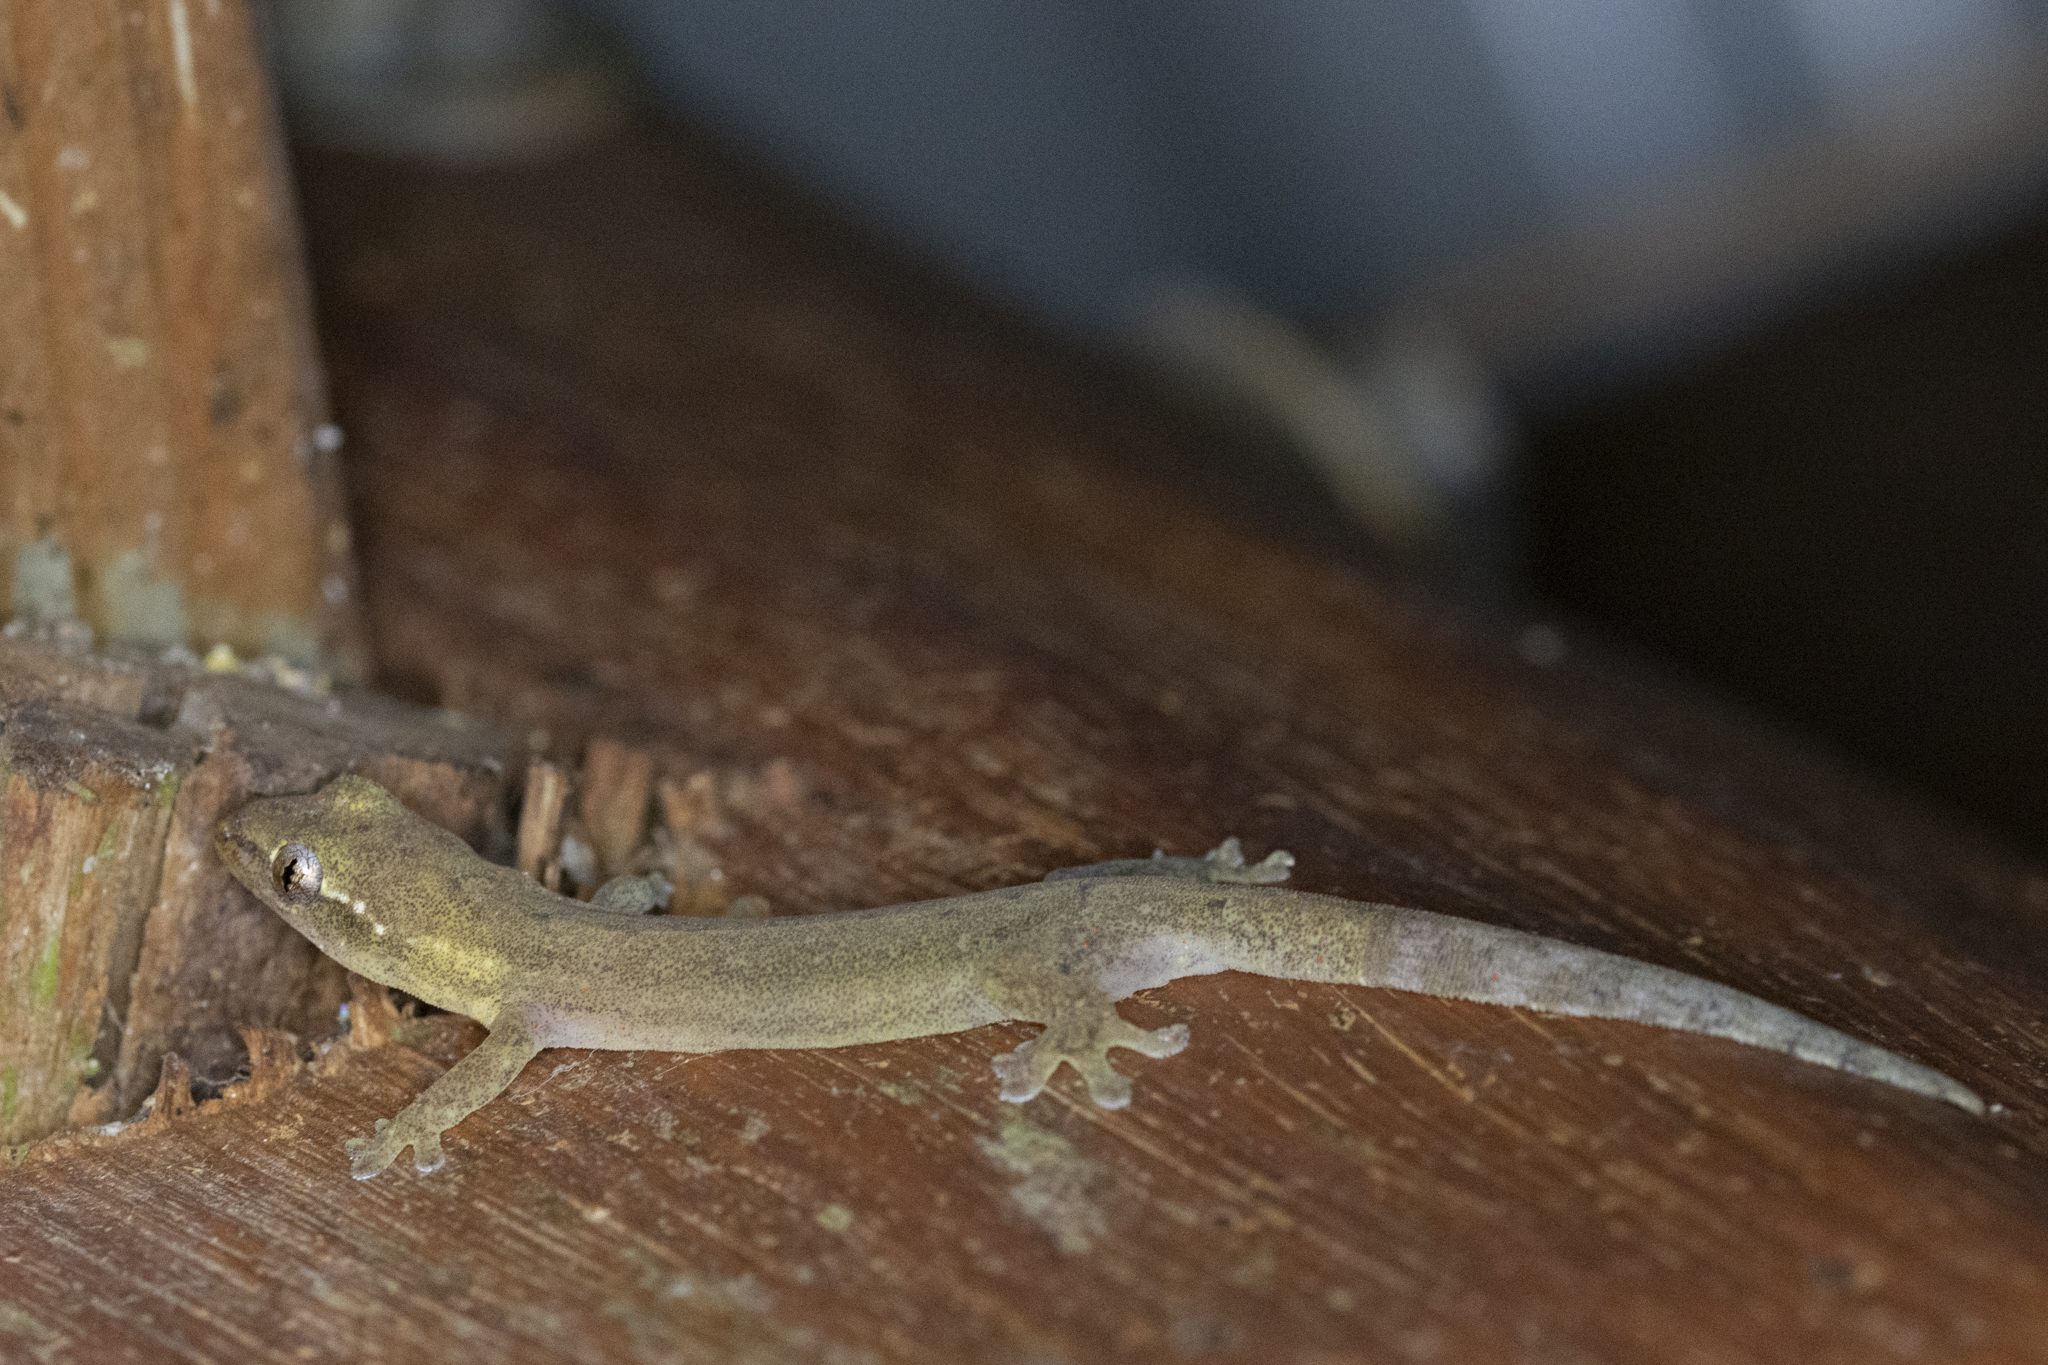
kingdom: Animalia
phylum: Chordata
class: Squamata
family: Gekkonidae
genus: Lepidodactylus
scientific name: Lepidodactylus moestus
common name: Micronesia flat-tailed gecko
